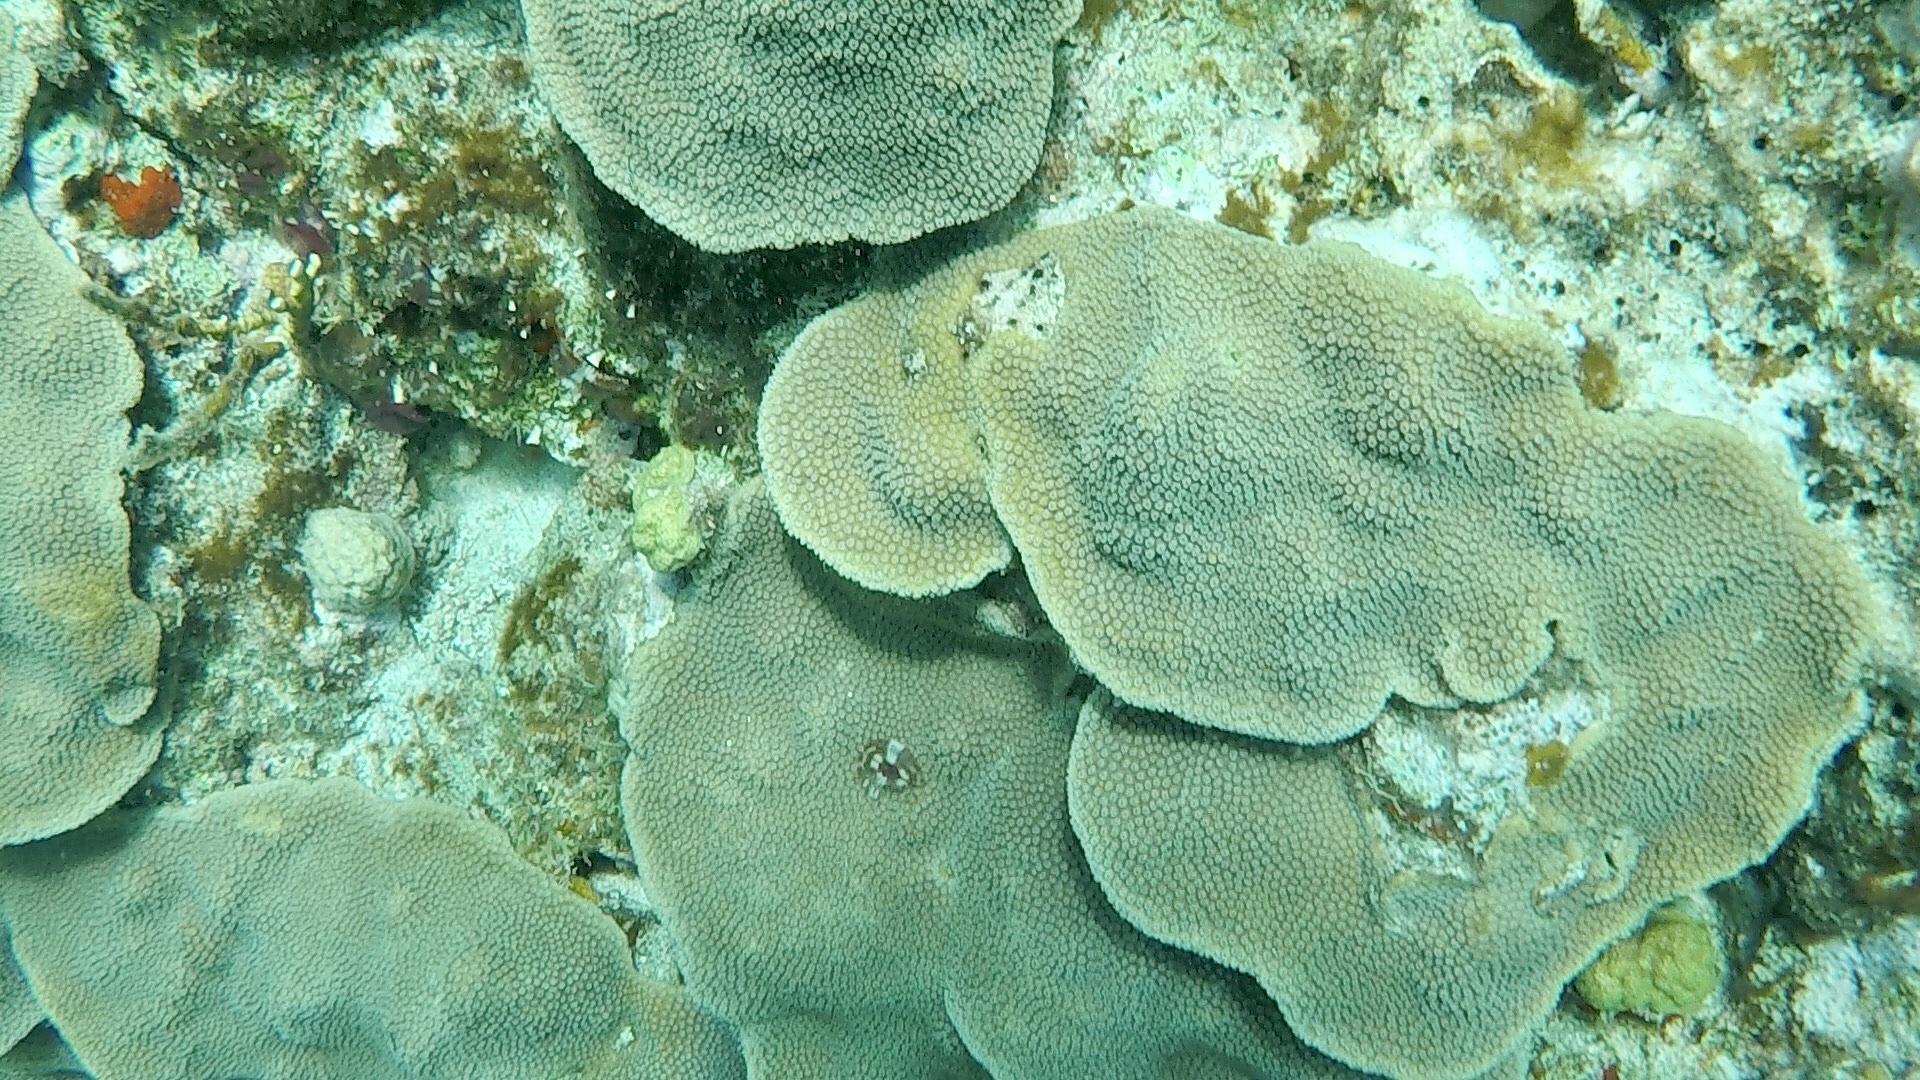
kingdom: Animalia
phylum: Cnidaria
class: Anthozoa
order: Scleractinia
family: Merulinidae
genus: Orbicella
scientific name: Orbicella faveolata
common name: Mountainous star coral
